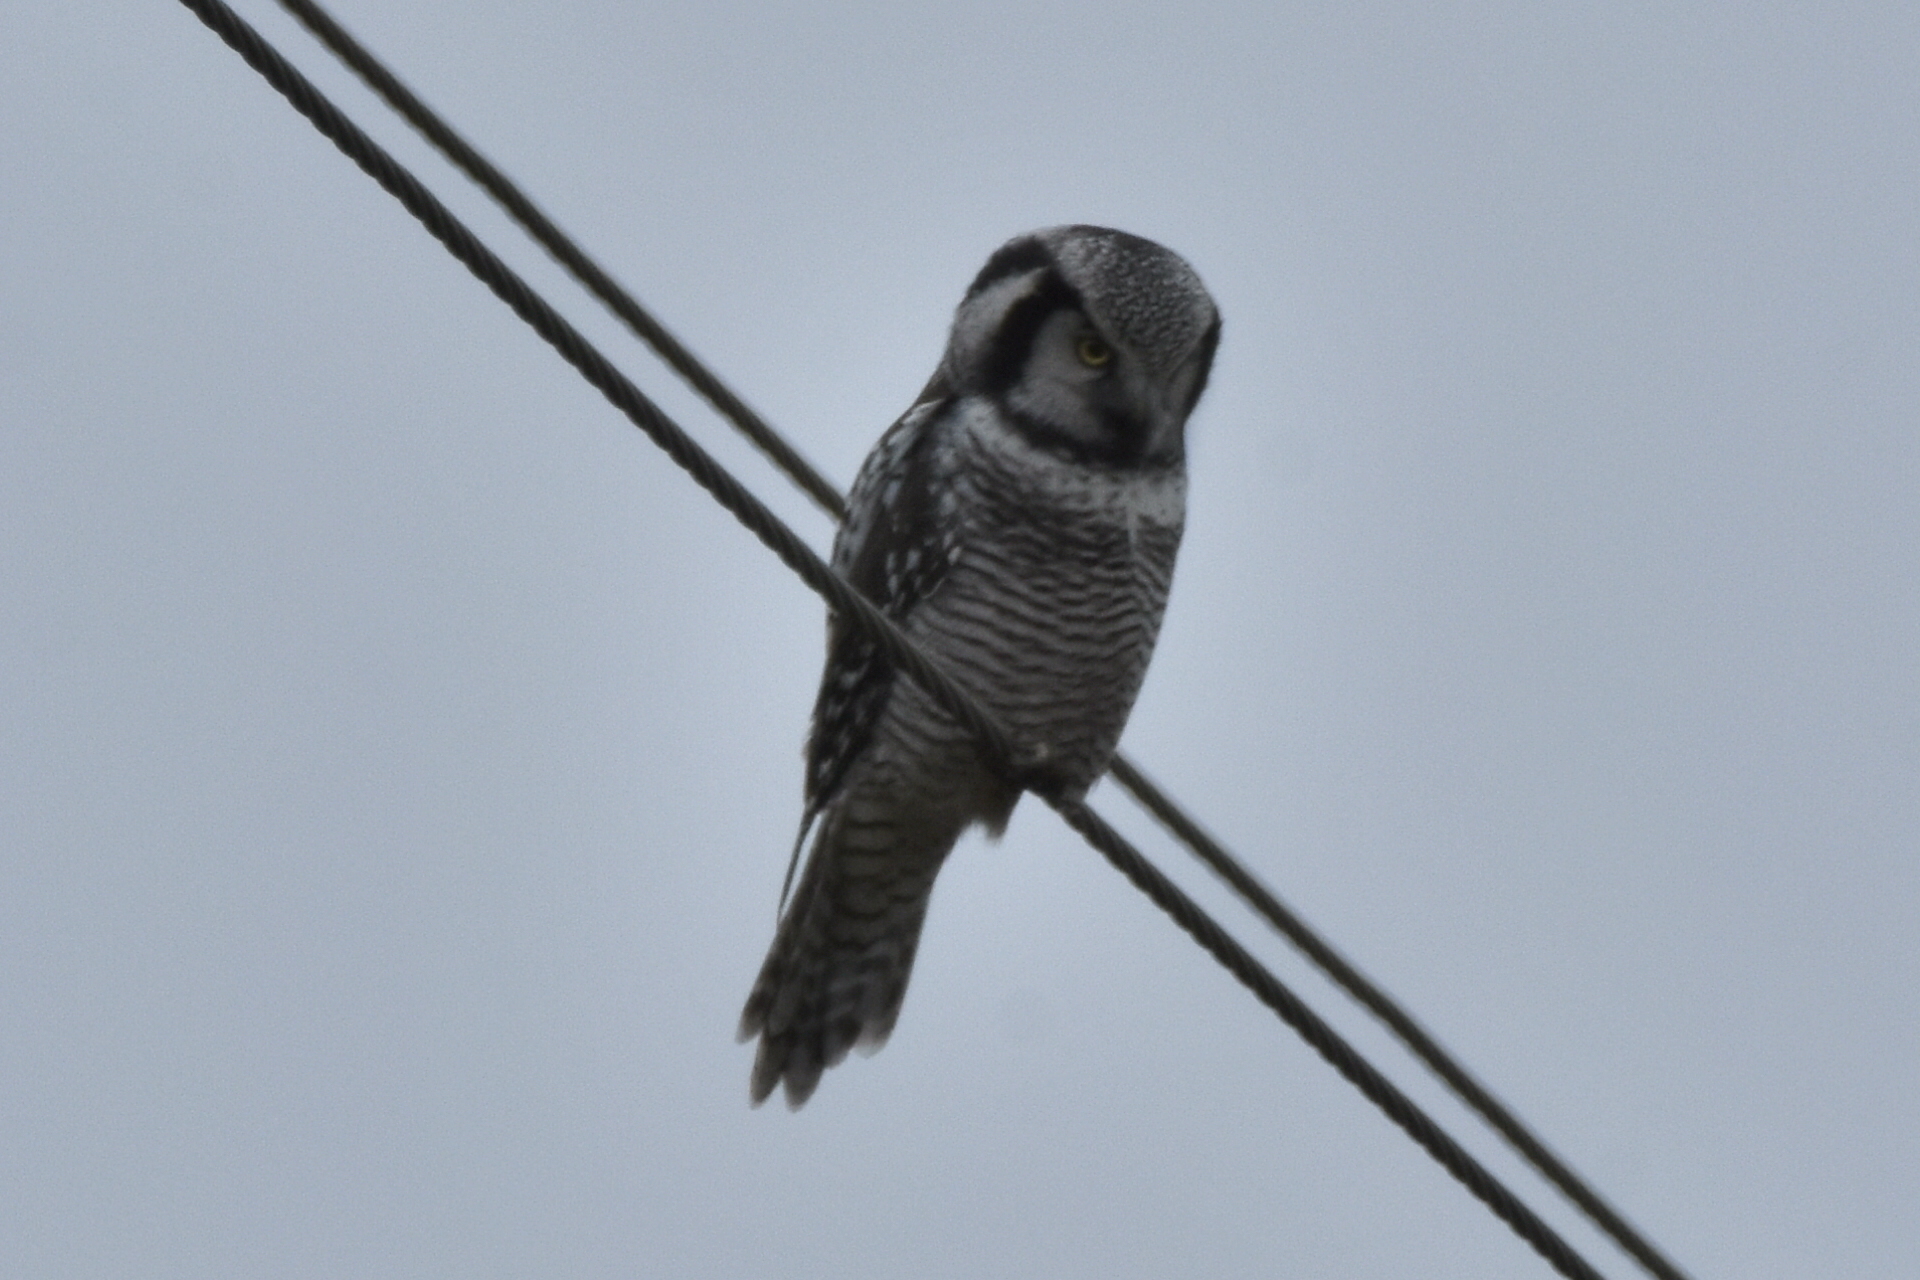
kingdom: Animalia
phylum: Chordata
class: Aves
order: Strigiformes
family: Strigidae
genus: Surnia
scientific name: Surnia ulula
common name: Northern hawk-owl
